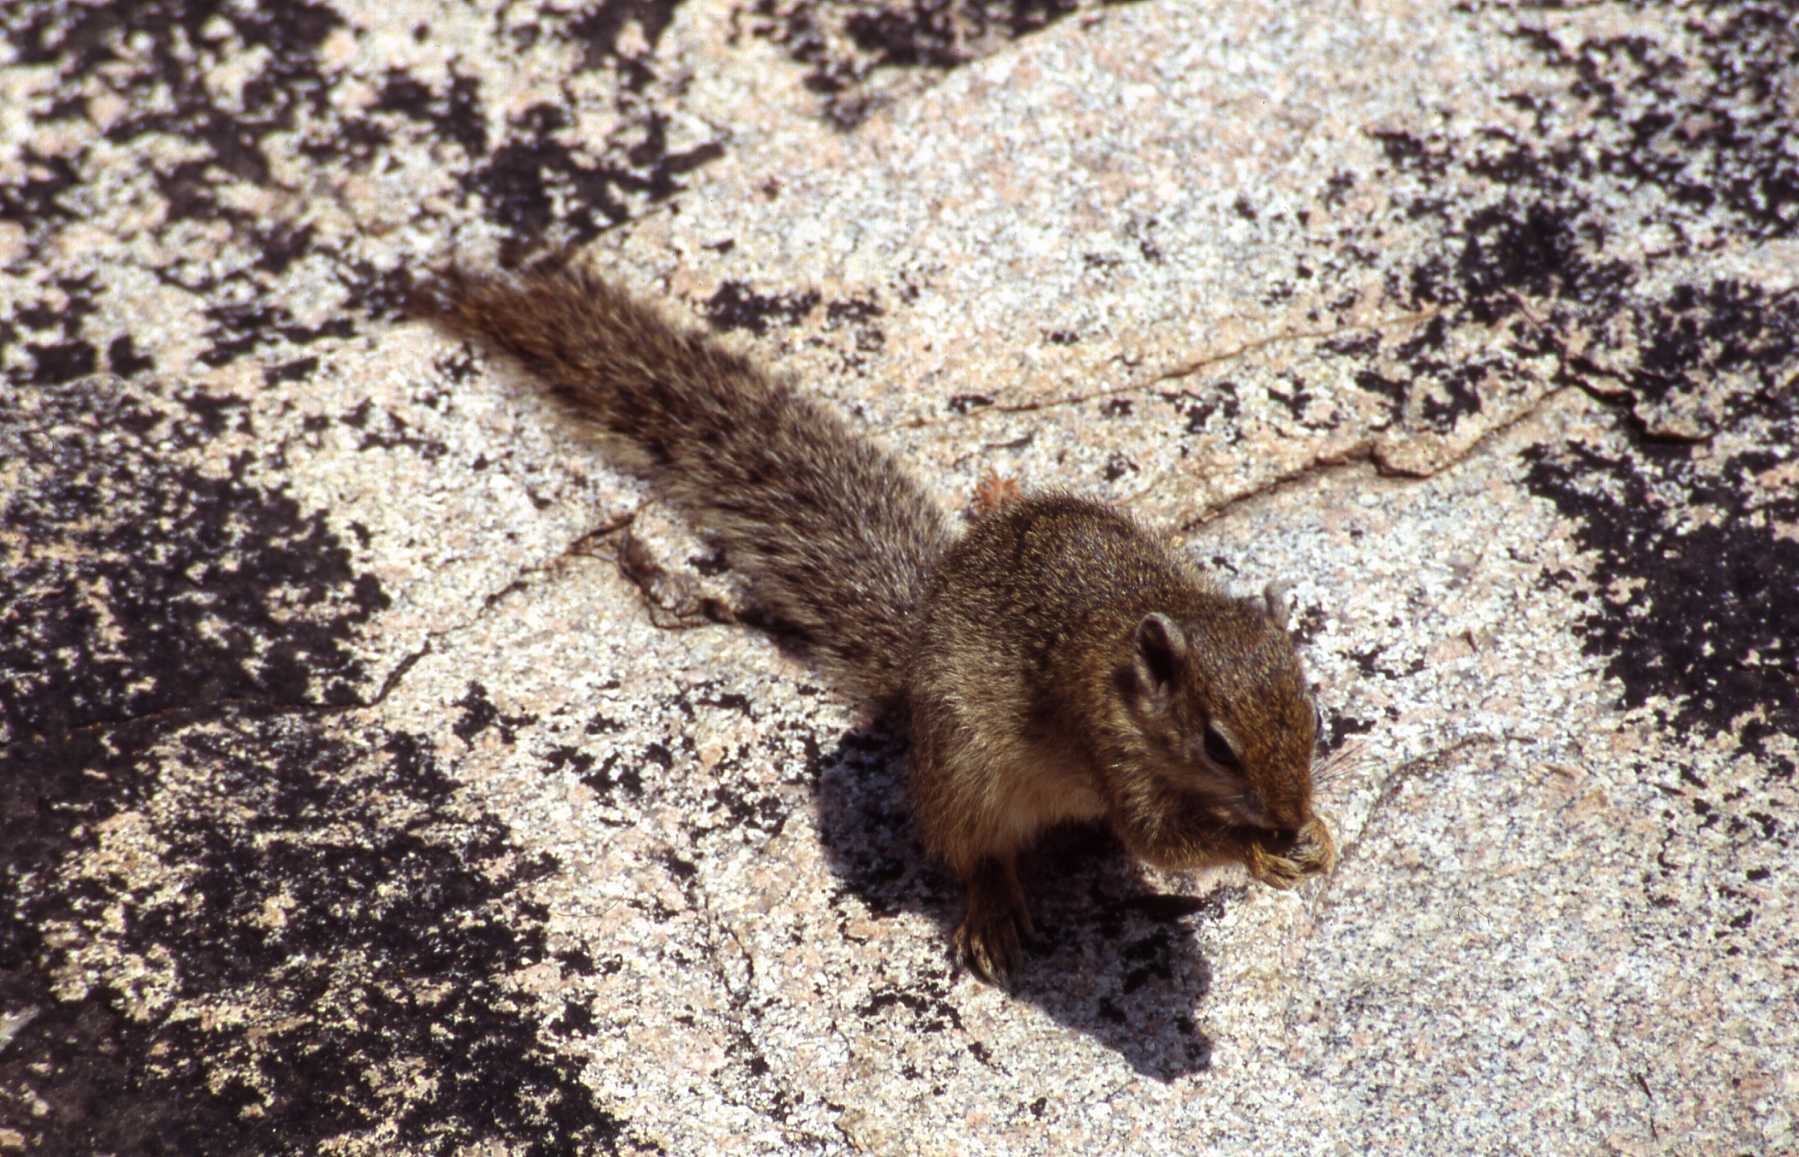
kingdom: Animalia
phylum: Chordata
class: Mammalia
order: Rodentia
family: Sciuridae
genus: Paraxerus
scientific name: Paraxerus cepapi
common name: Smith's bush squirrel
